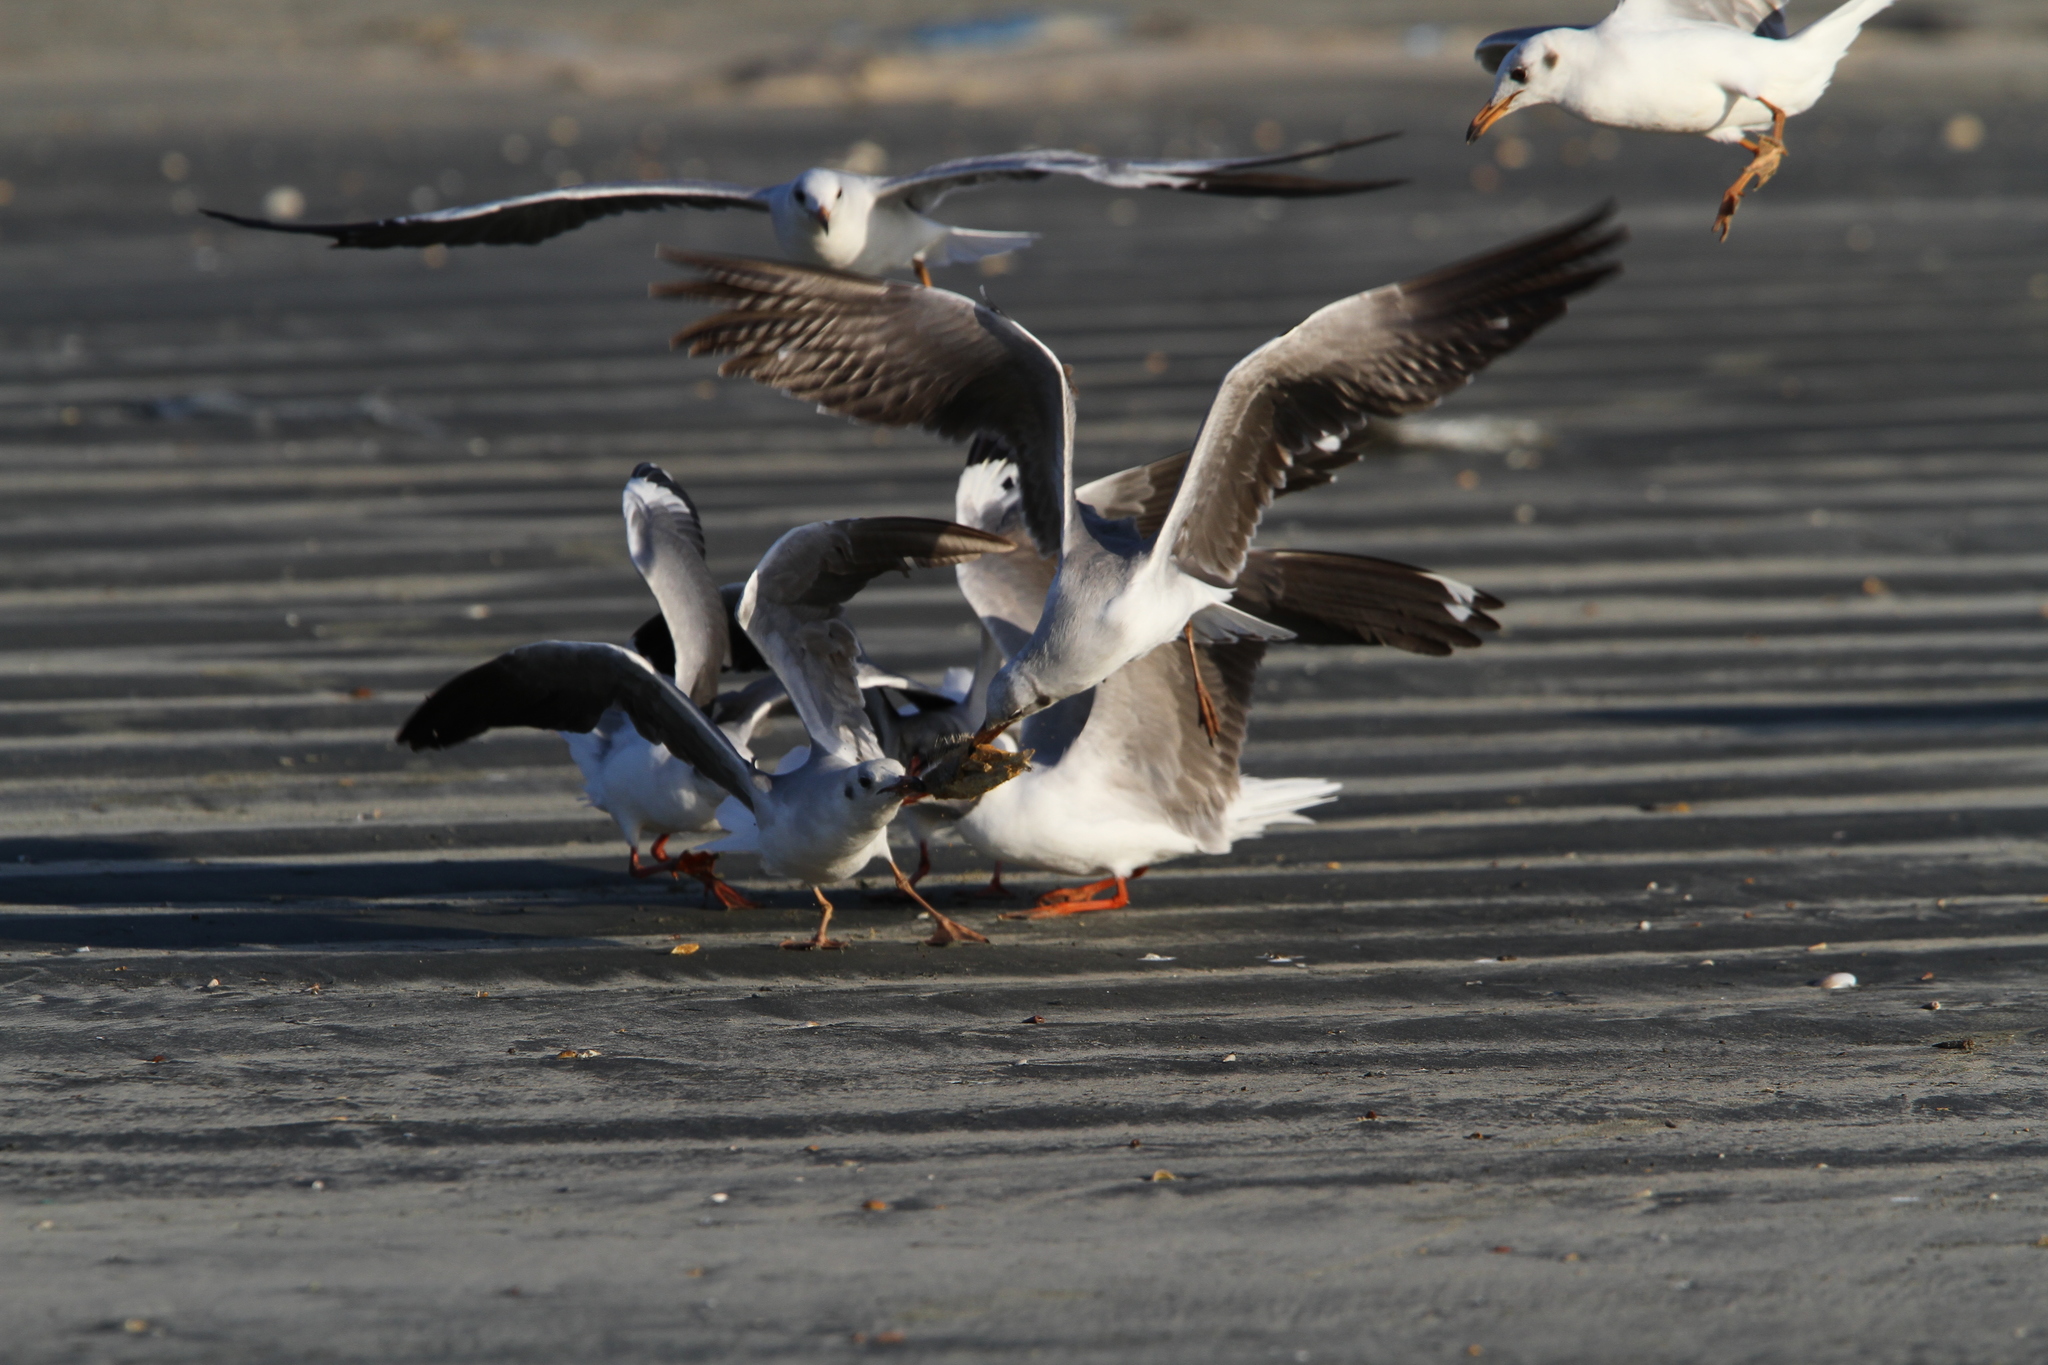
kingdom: Animalia
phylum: Chordata
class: Aves
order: Charadriiformes
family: Laridae
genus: Chroicocephalus
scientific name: Chroicocephalus cirrocephalus
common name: Grey-headed gull
